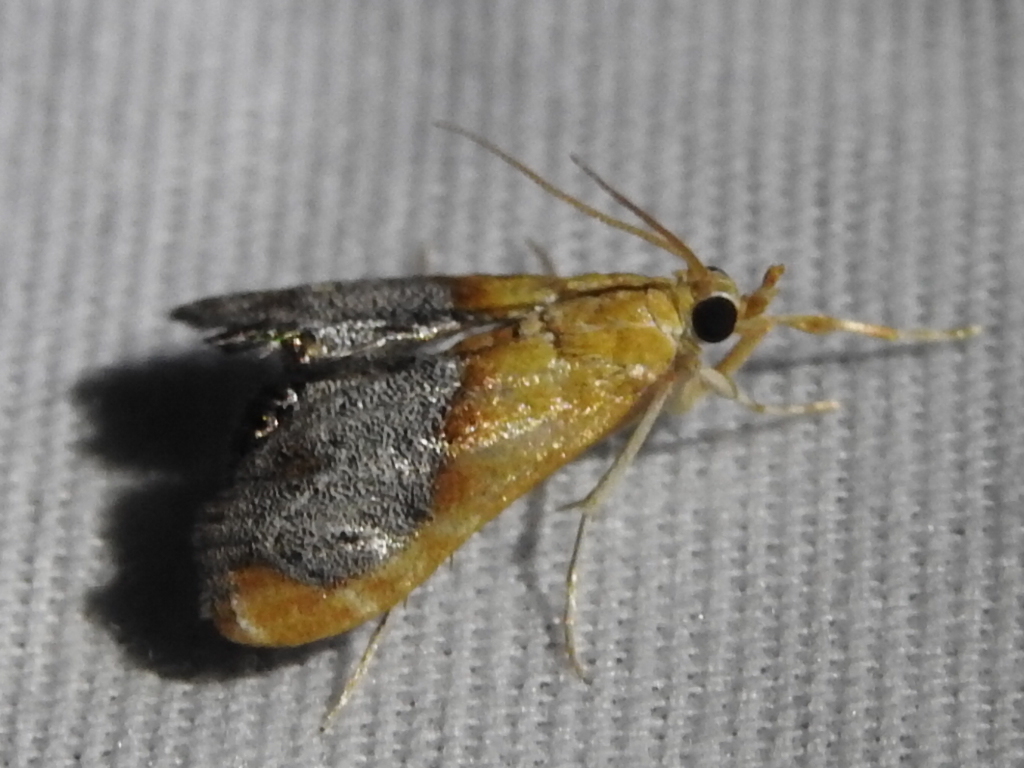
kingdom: Animalia
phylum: Arthropoda
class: Insecta
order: Lepidoptera
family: Crambidae
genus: Chalcoela
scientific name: Chalcoela iphitalis
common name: Sooty-winged chalcoela moth
